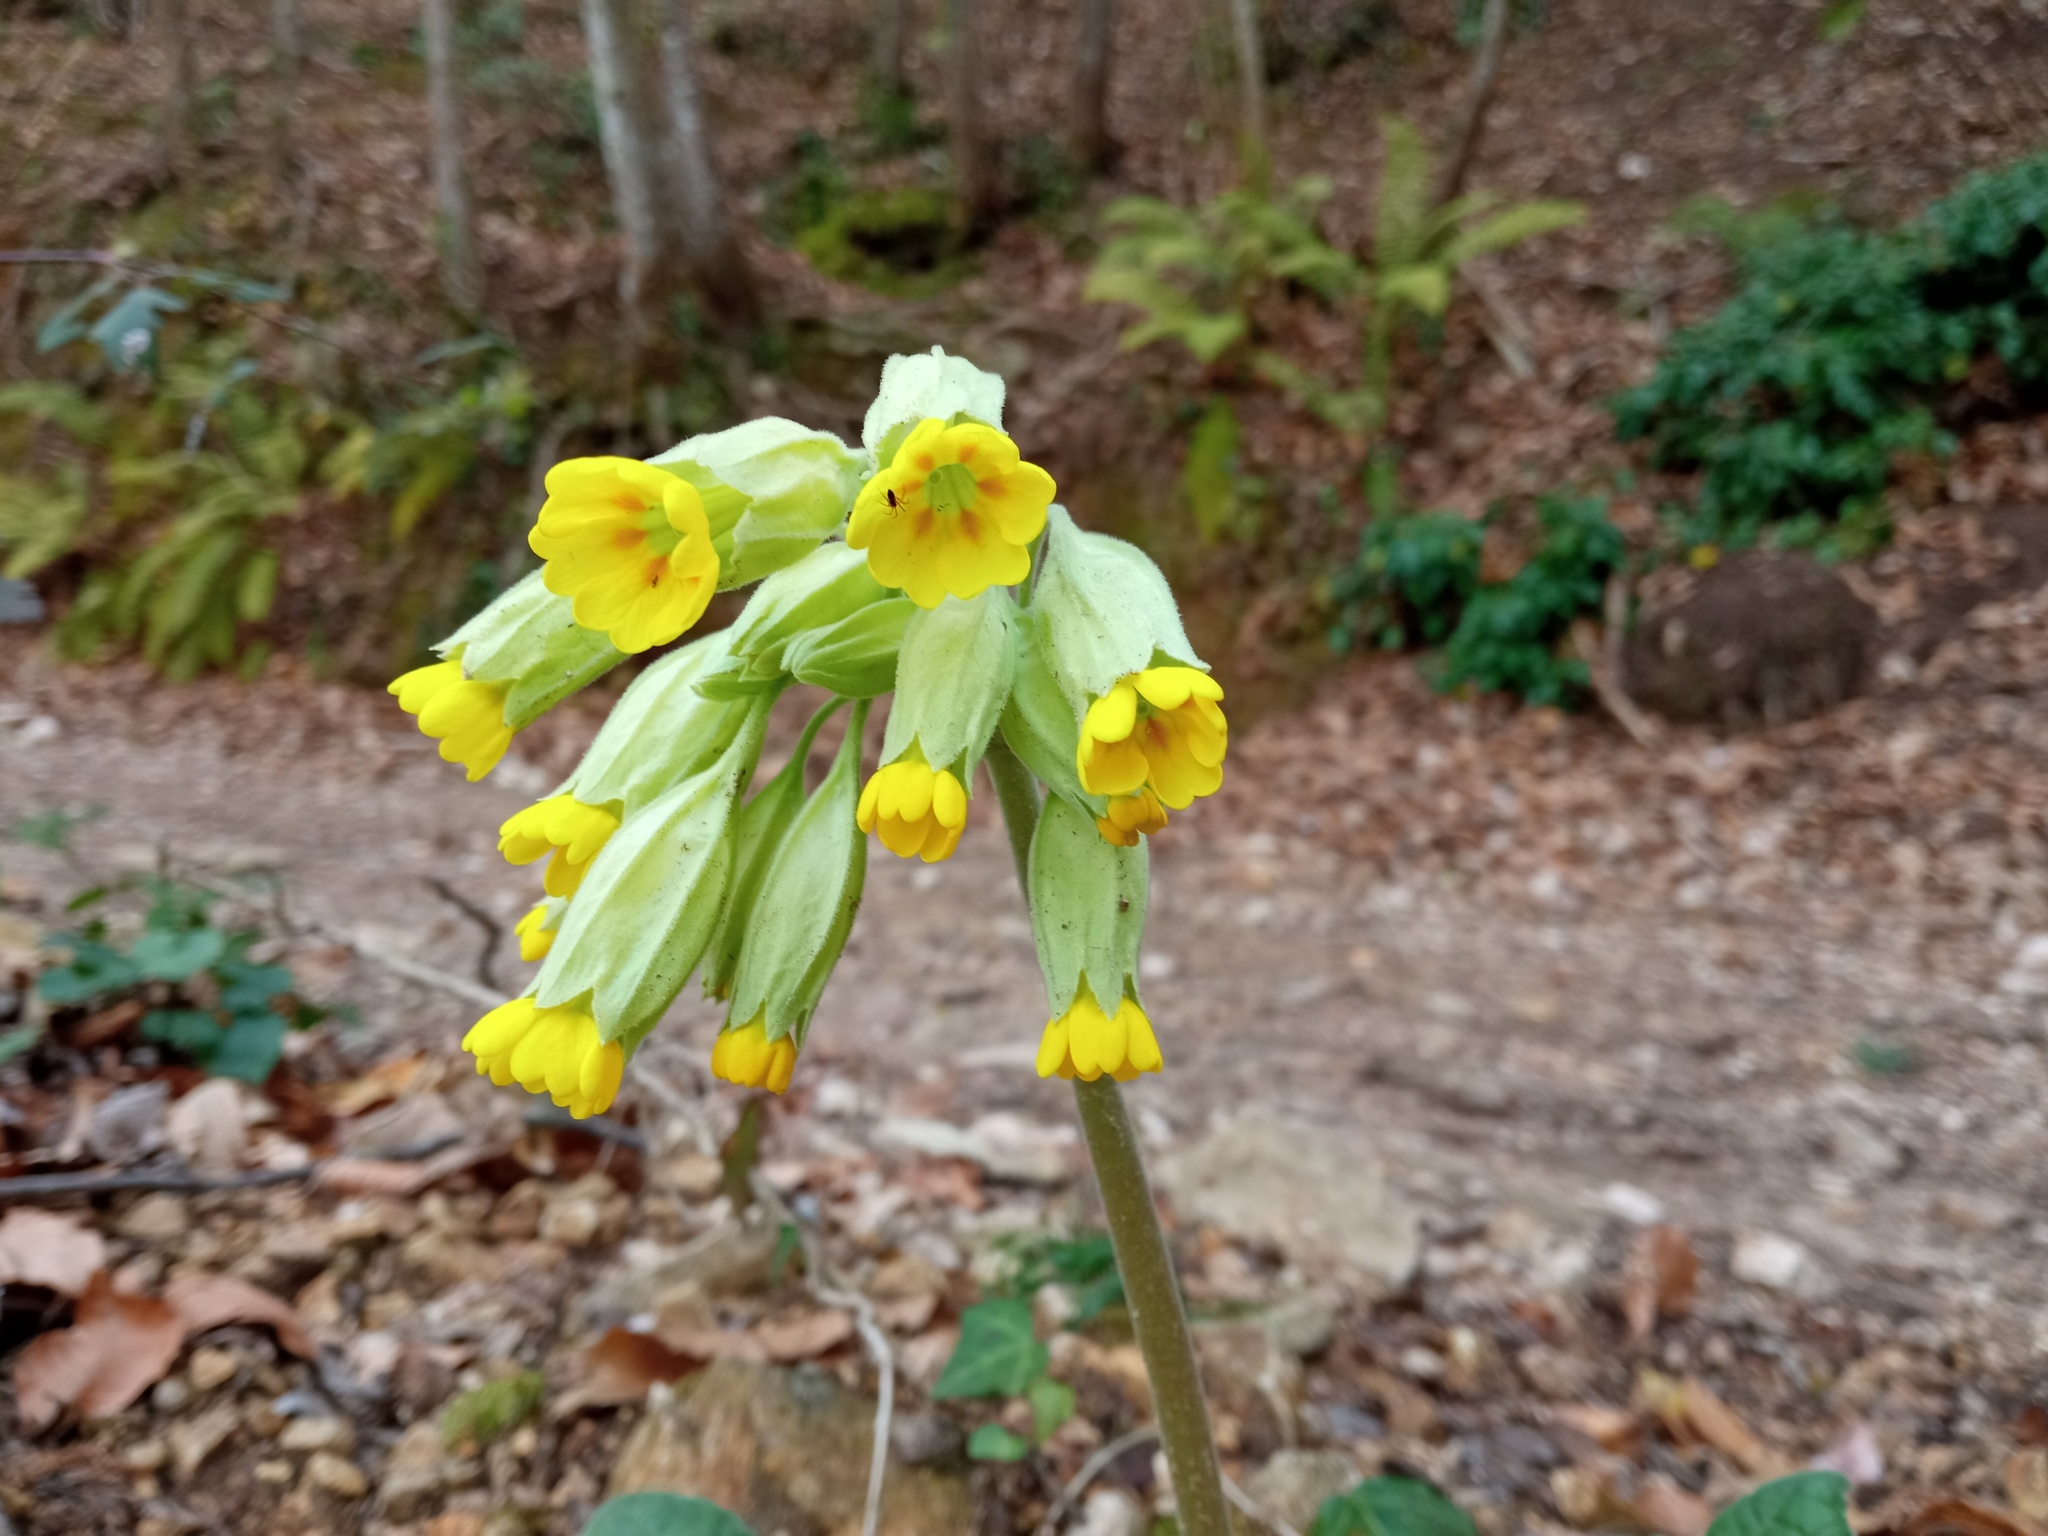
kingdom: Plantae
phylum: Tracheophyta
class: Magnoliopsida
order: Ericales
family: Primulaceae
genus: Primula
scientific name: Primula veris
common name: Cowslip
